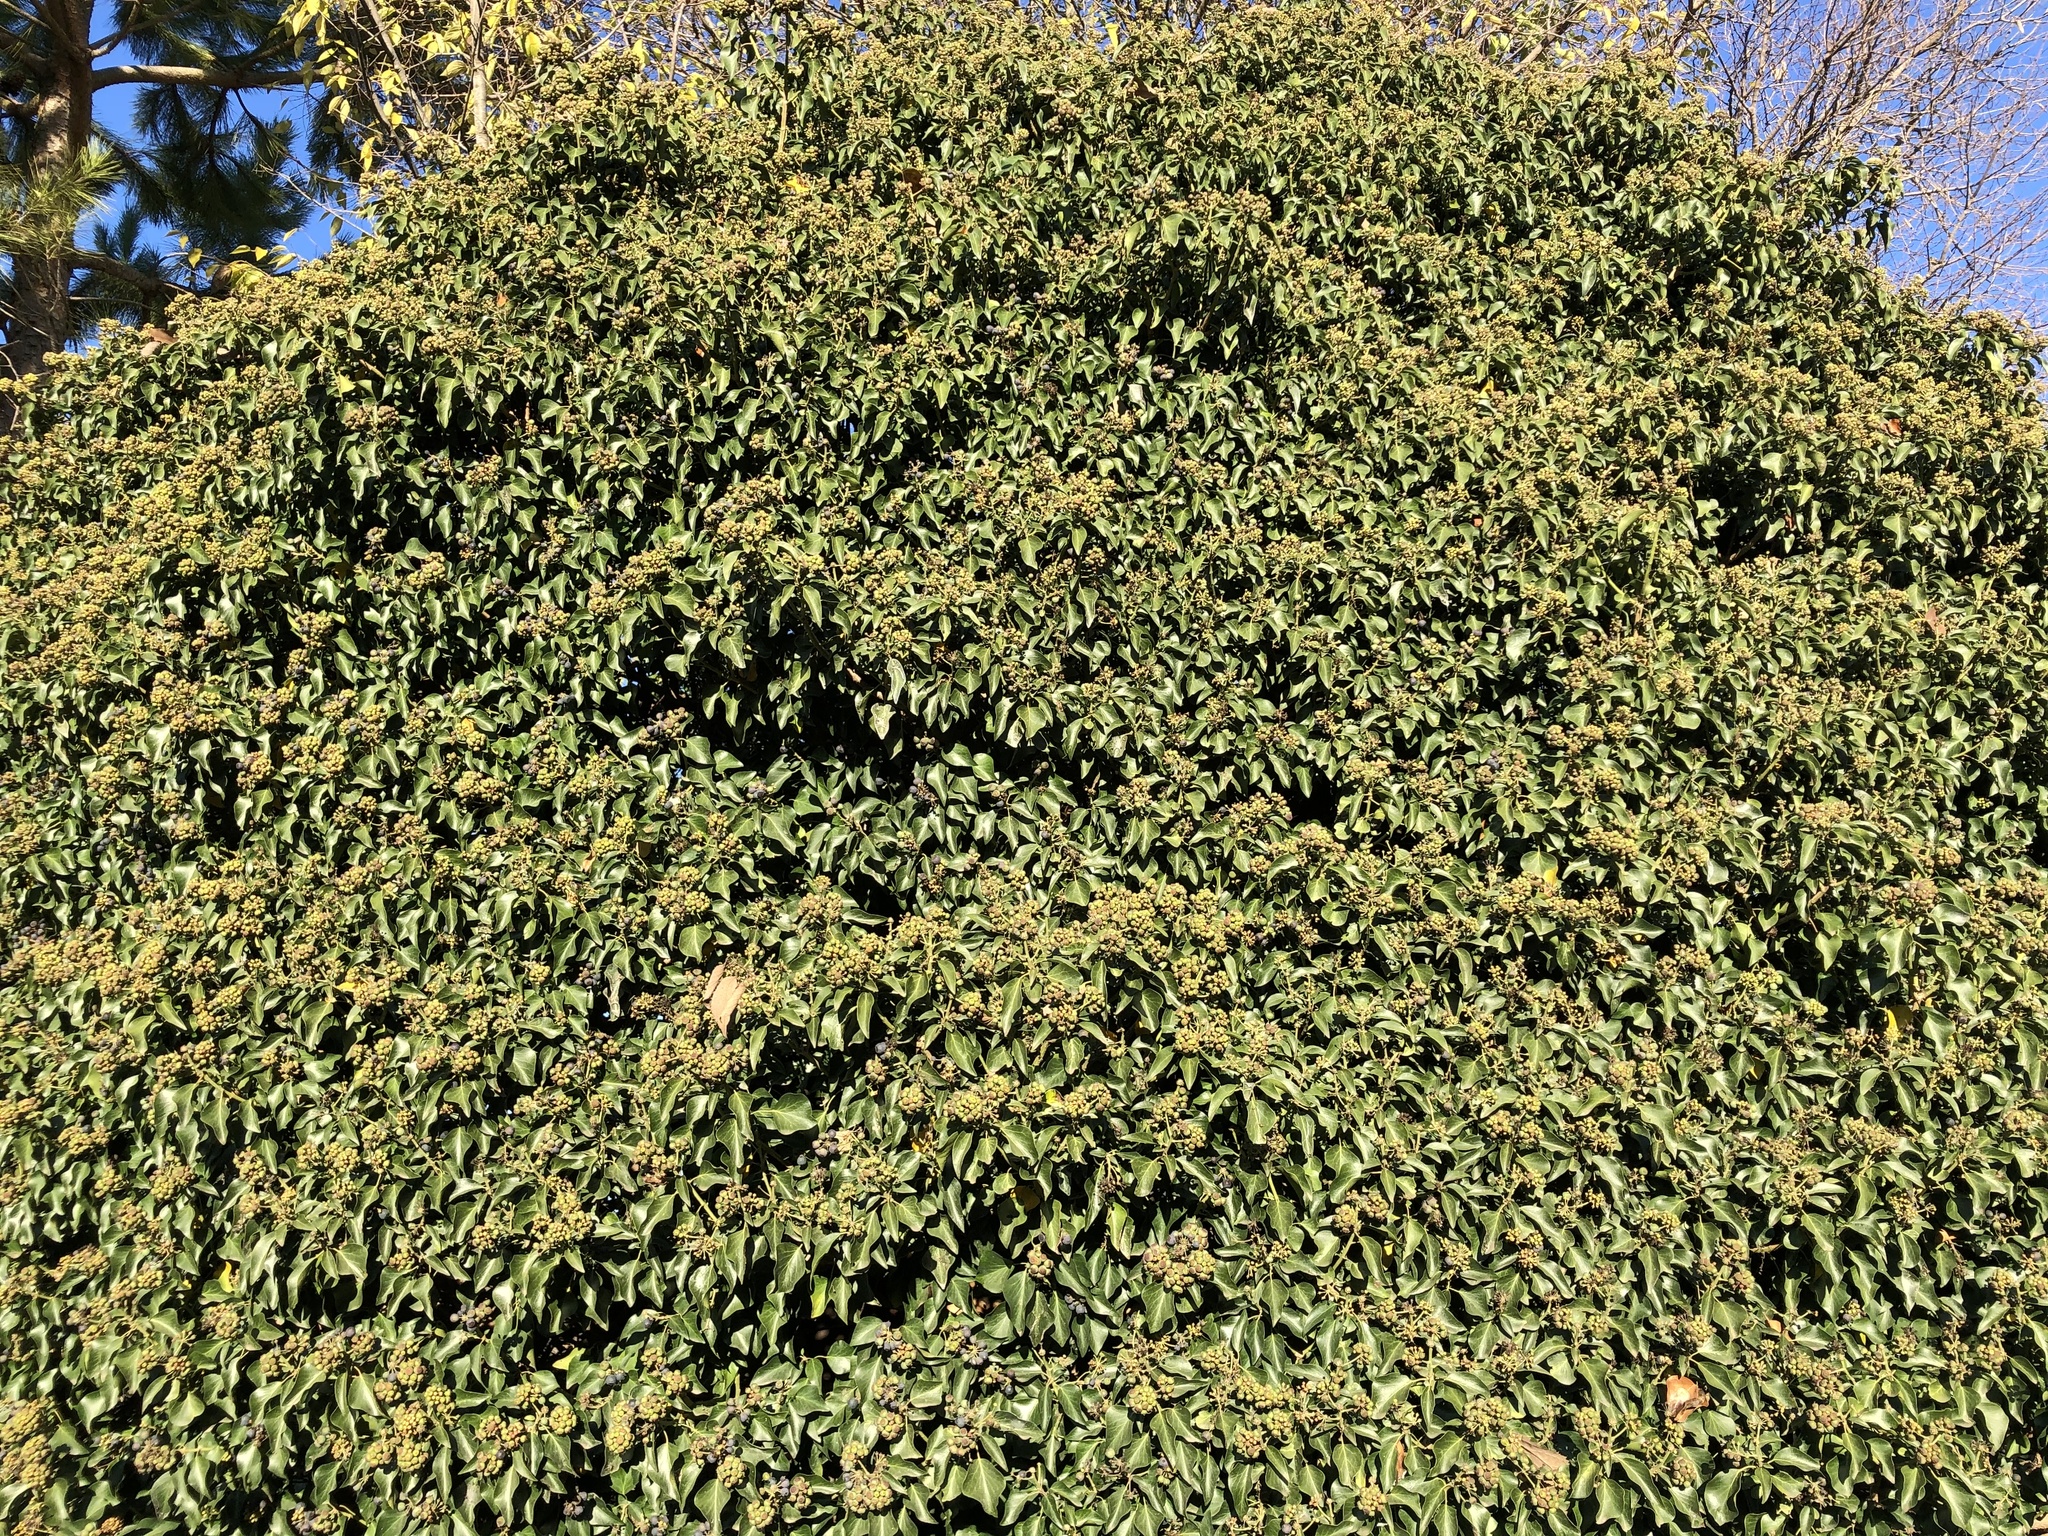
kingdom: Plantae
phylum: Tracheophyta
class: Magnoliopsida
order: Apiales
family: Araliaceae
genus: Hedera
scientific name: Hedera helix
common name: Ivy
